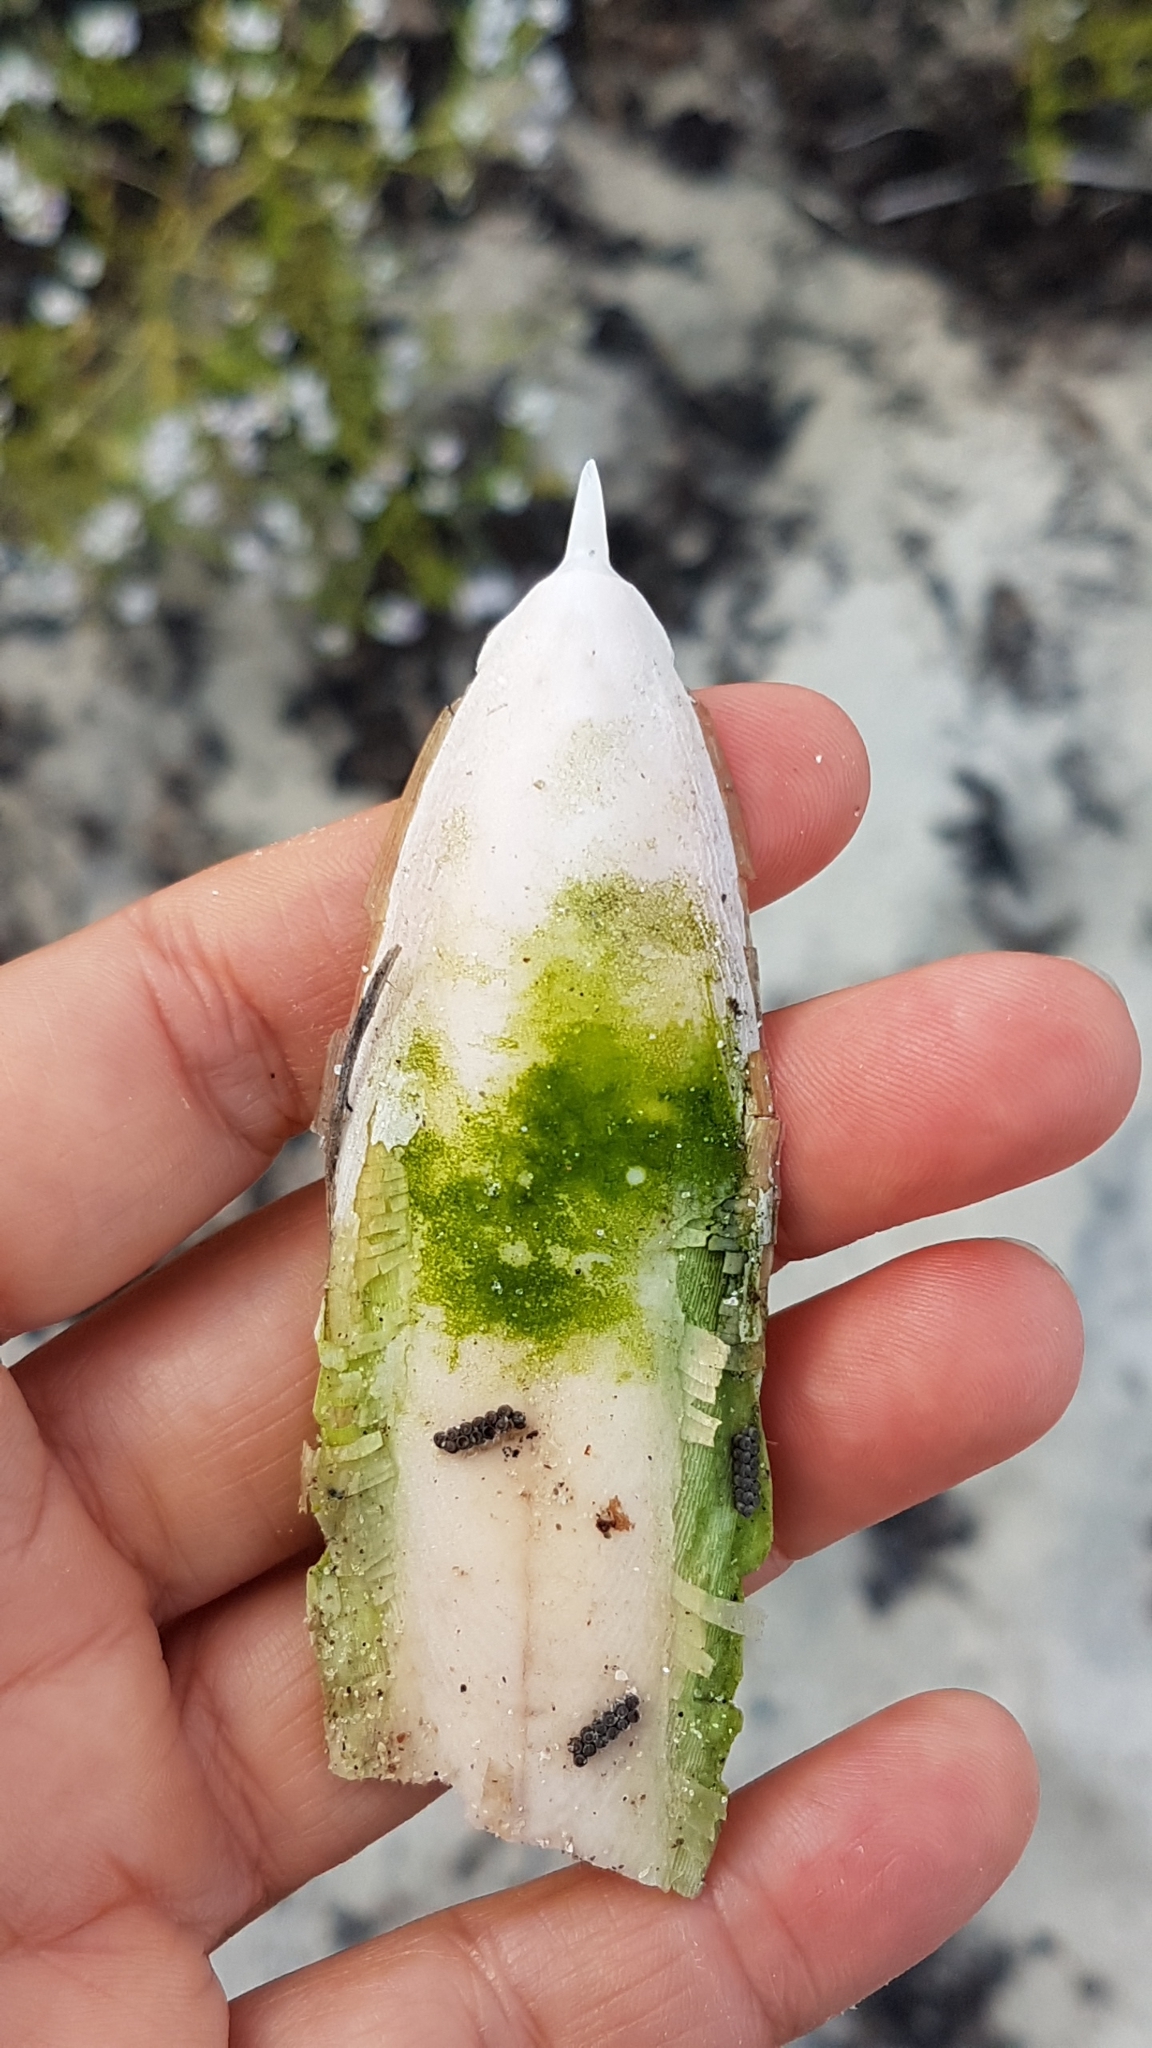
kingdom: Animalia
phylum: Mollusca
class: Cephalopoda
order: Sepiida
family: Sepiidae
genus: Rhombosepion
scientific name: Rhombosepion orbignyanum
